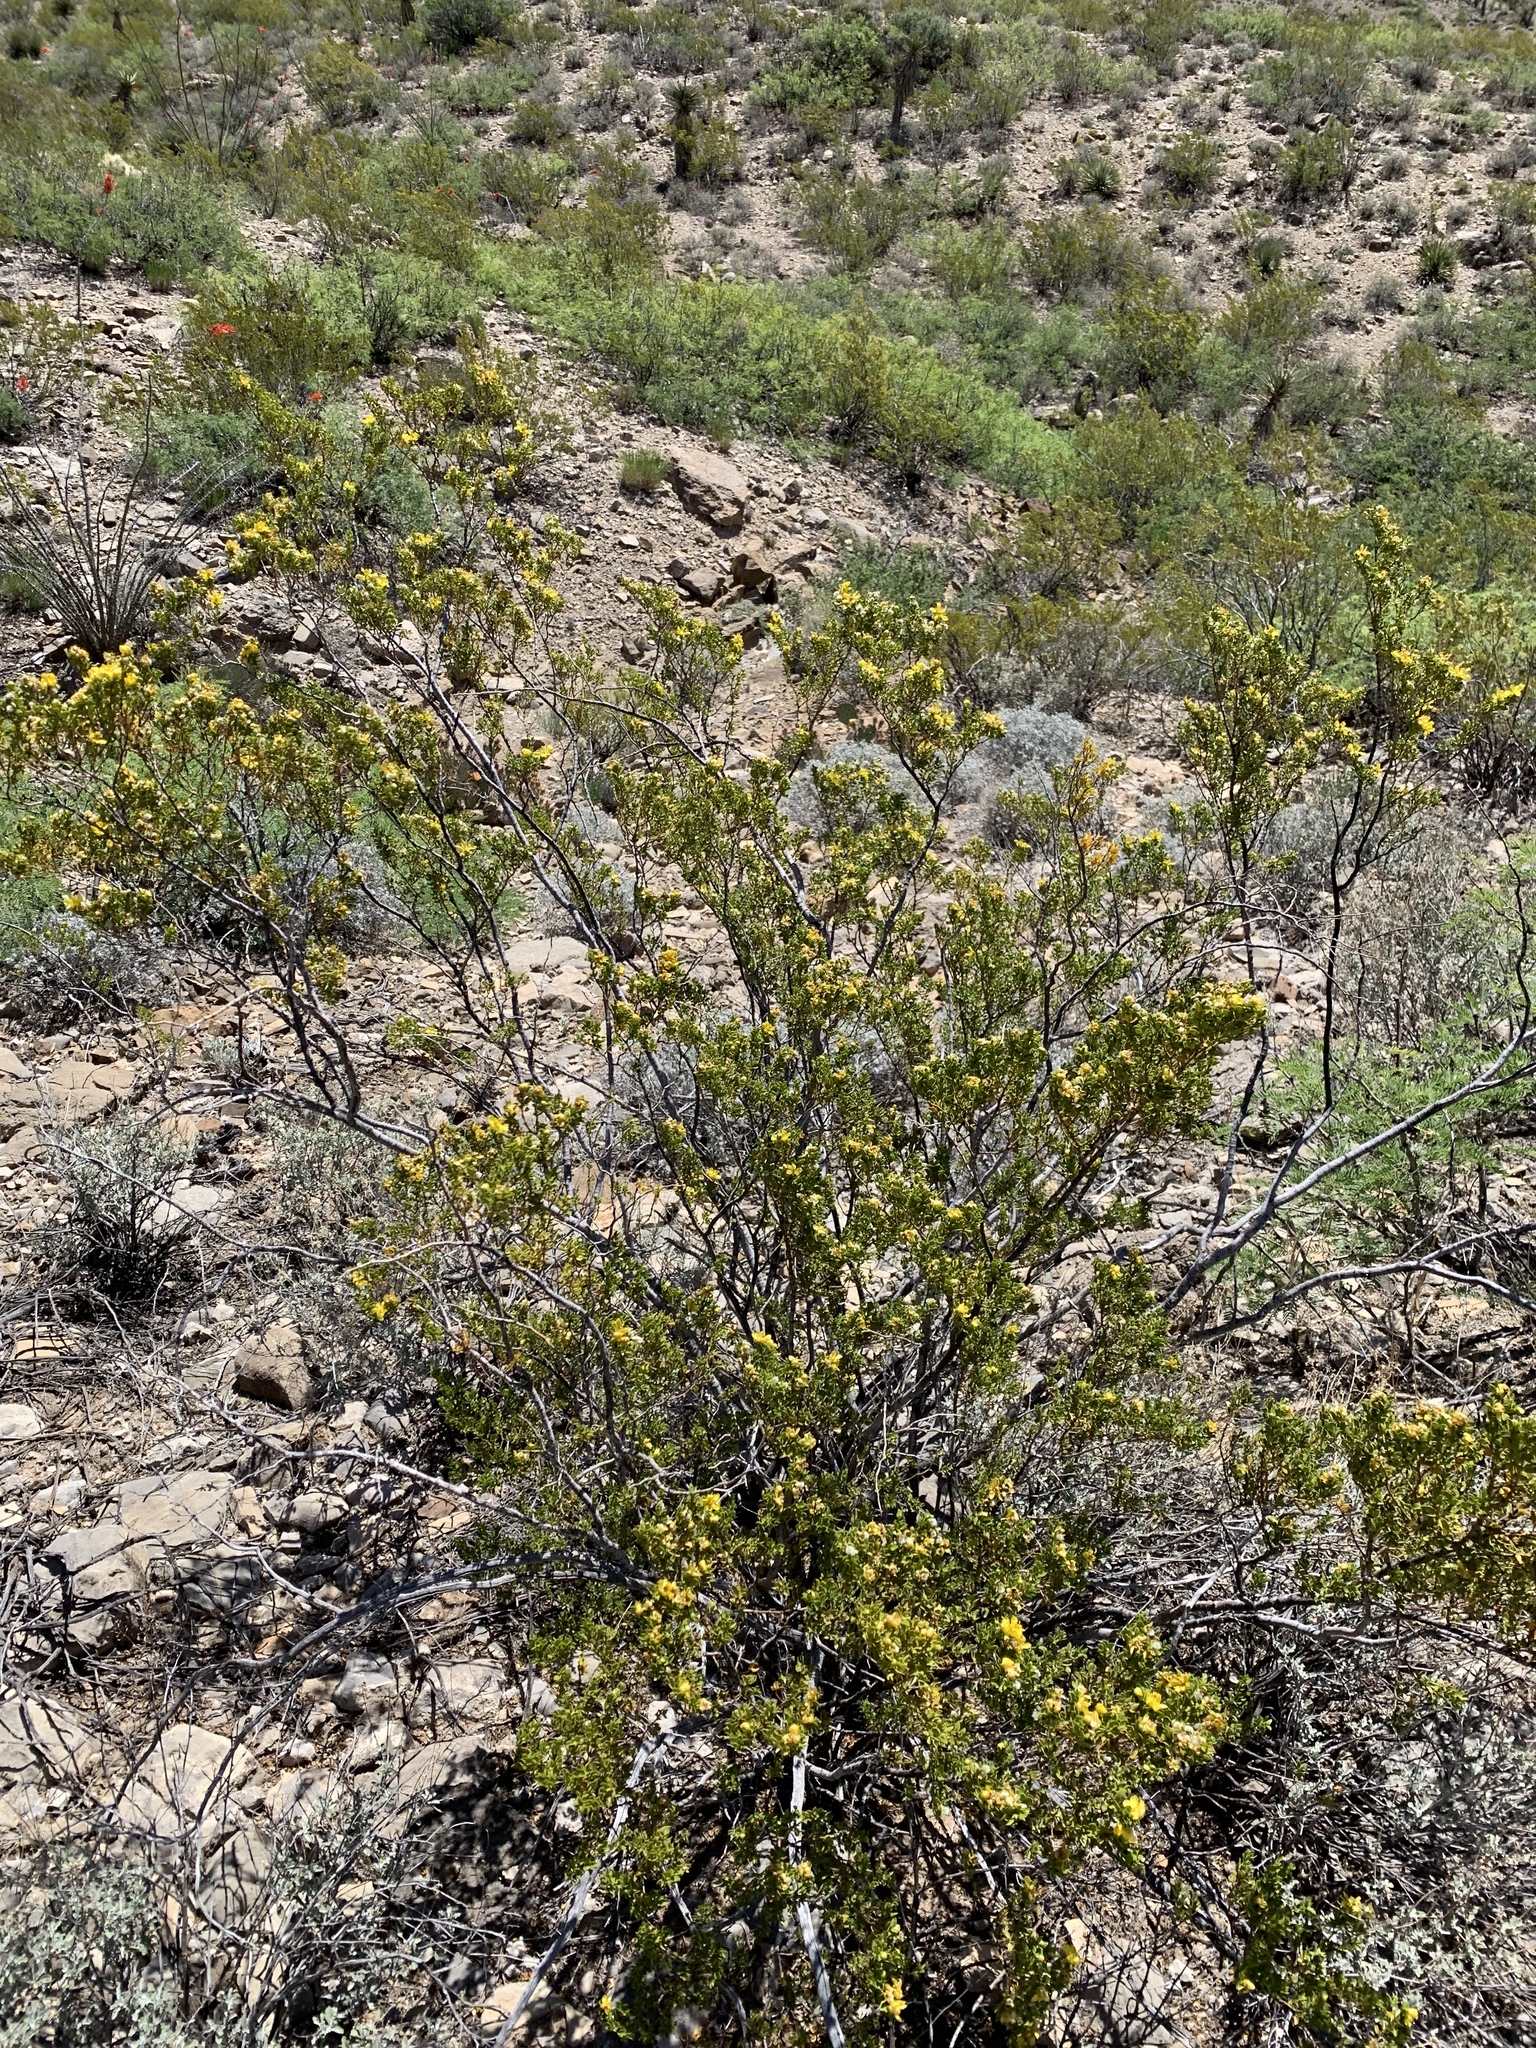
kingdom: Plantae
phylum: Tracheophyta
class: Magnoliopsida
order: Zygophyllales
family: Zygophyllaceae
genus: Larrea
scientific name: Larrea tridentata
